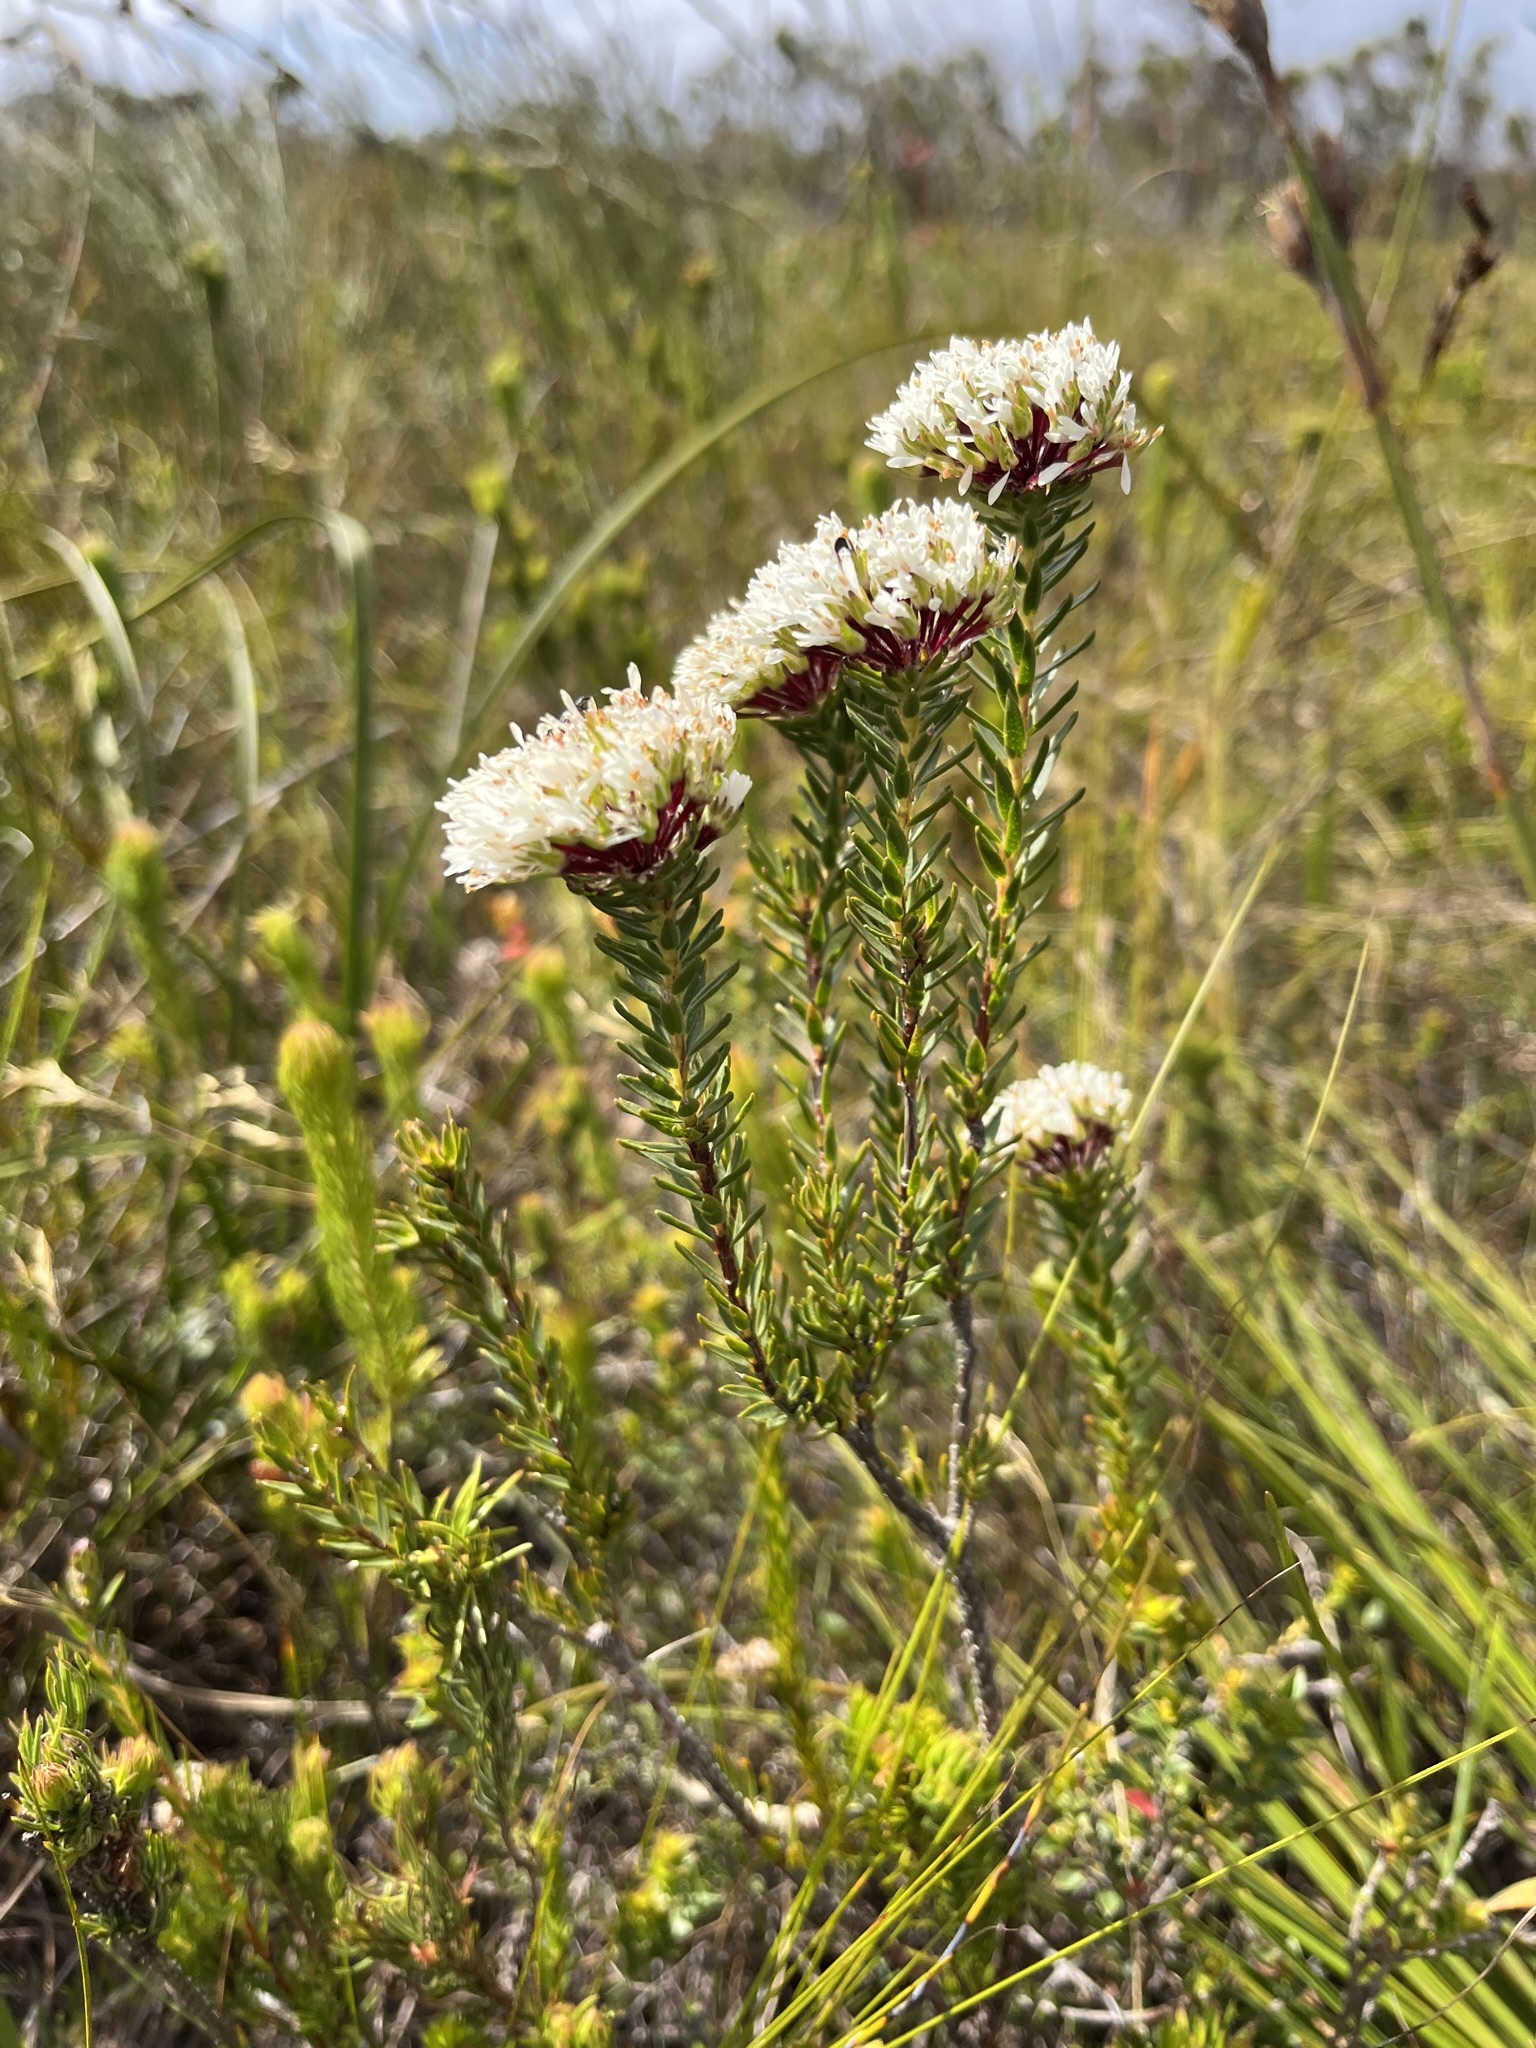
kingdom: Plantae
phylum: Tracheophyta
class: Magnoliopsida
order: Sapindales
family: Rutaceae
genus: Agathosma
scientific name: Agathosma bifida
